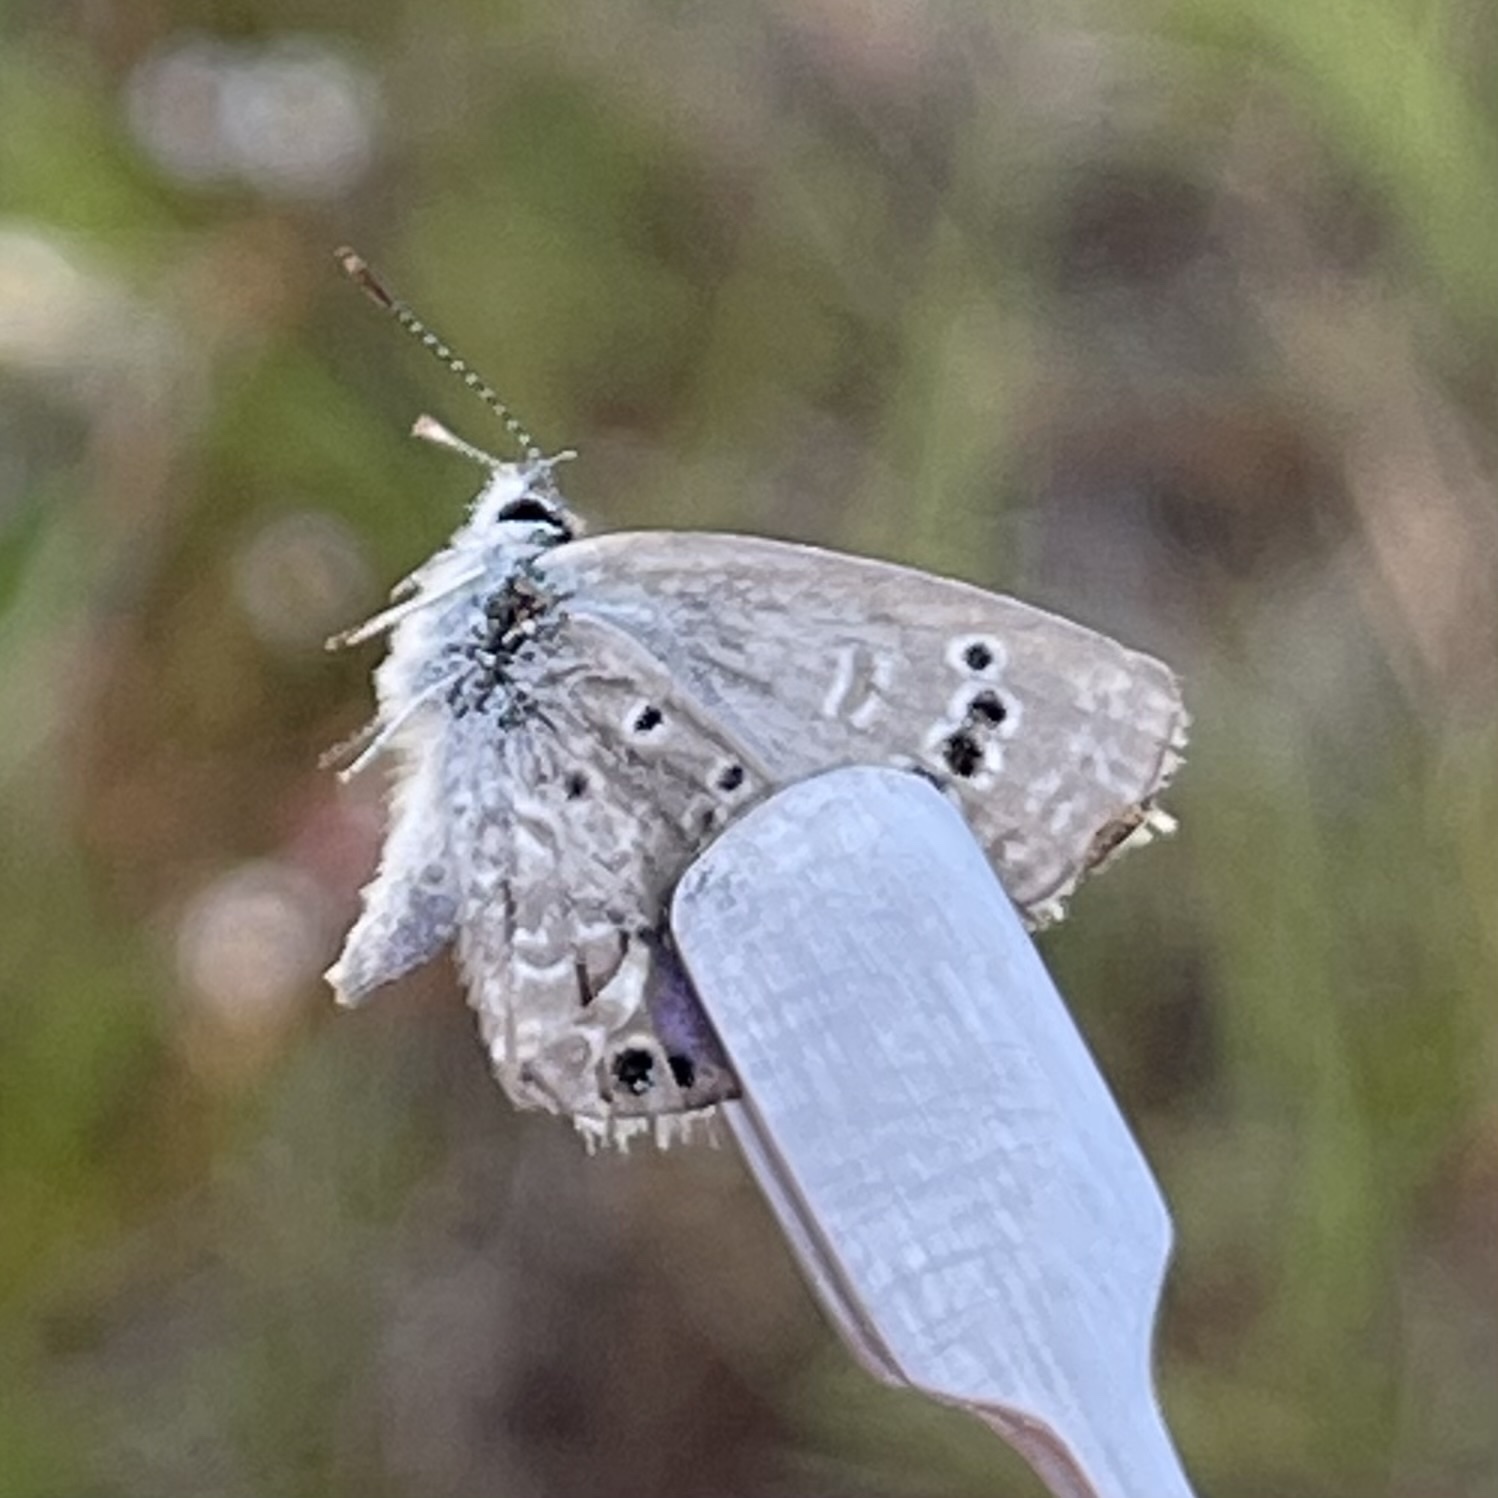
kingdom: Animalia
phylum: Arthropoda
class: Insecta
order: Lepidoptera
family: Lycaenidae
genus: Echinargus
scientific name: Echinargus isola
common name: Reakirt's blue
